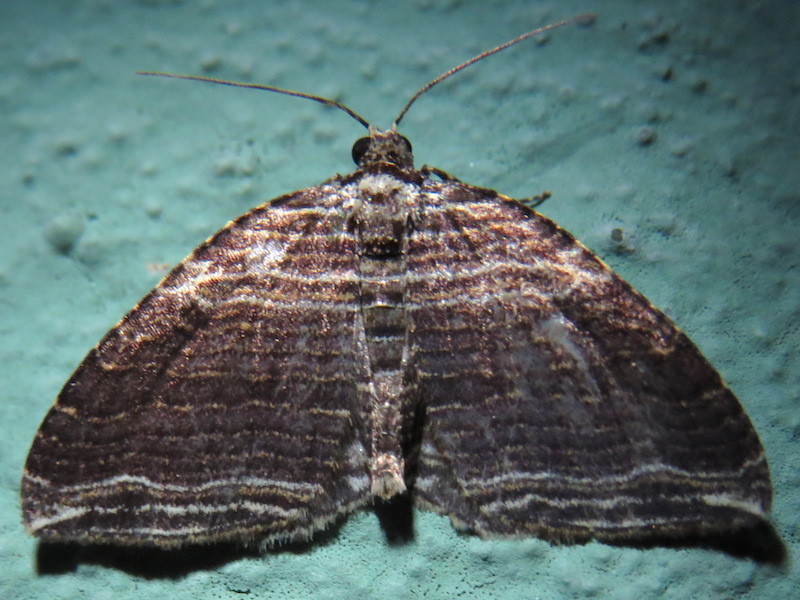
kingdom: Animalia
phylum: Arthropoda
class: Insecta
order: Lepidoptera
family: Geometridae
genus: Anticlea
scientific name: Anticlea multiferata
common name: Many-lined carpet
